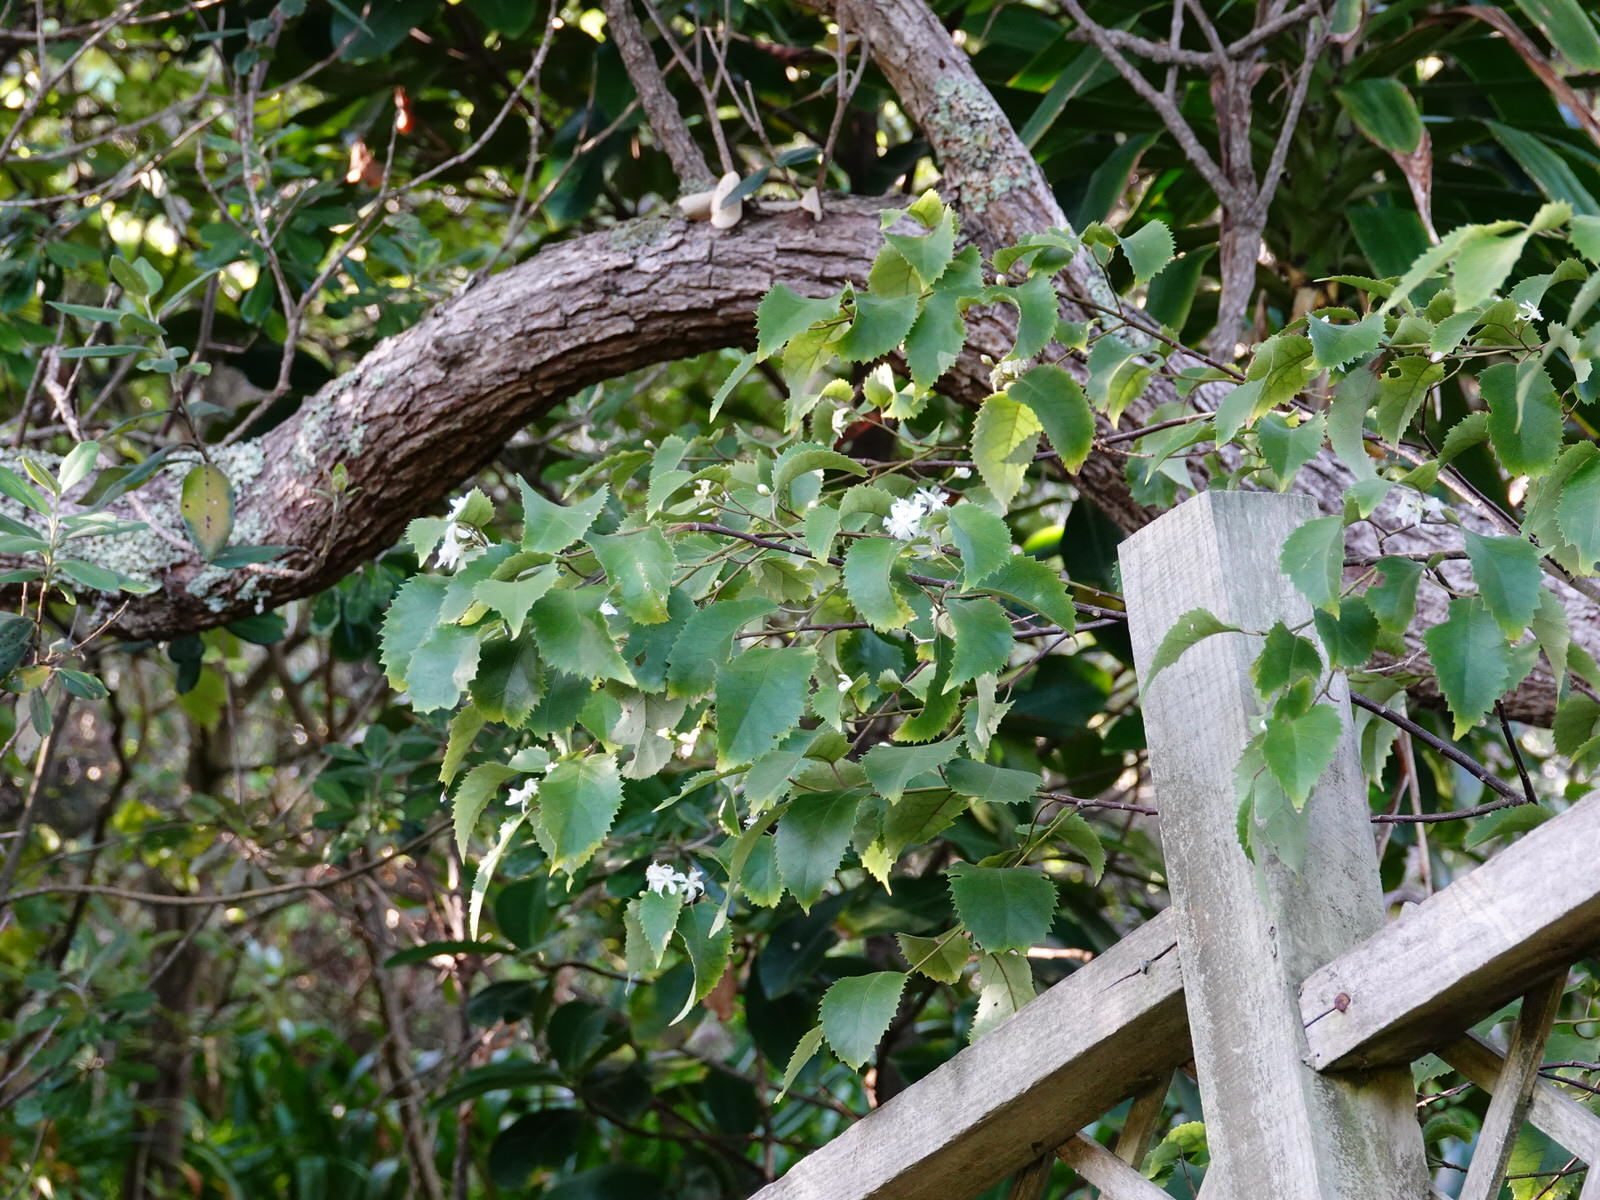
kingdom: Plantae
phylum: Tracheophyta
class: Magnoliopsida
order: Malvales
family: Malvaceae
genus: Hoheria
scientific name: Hoheria populnea
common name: Lacebark
